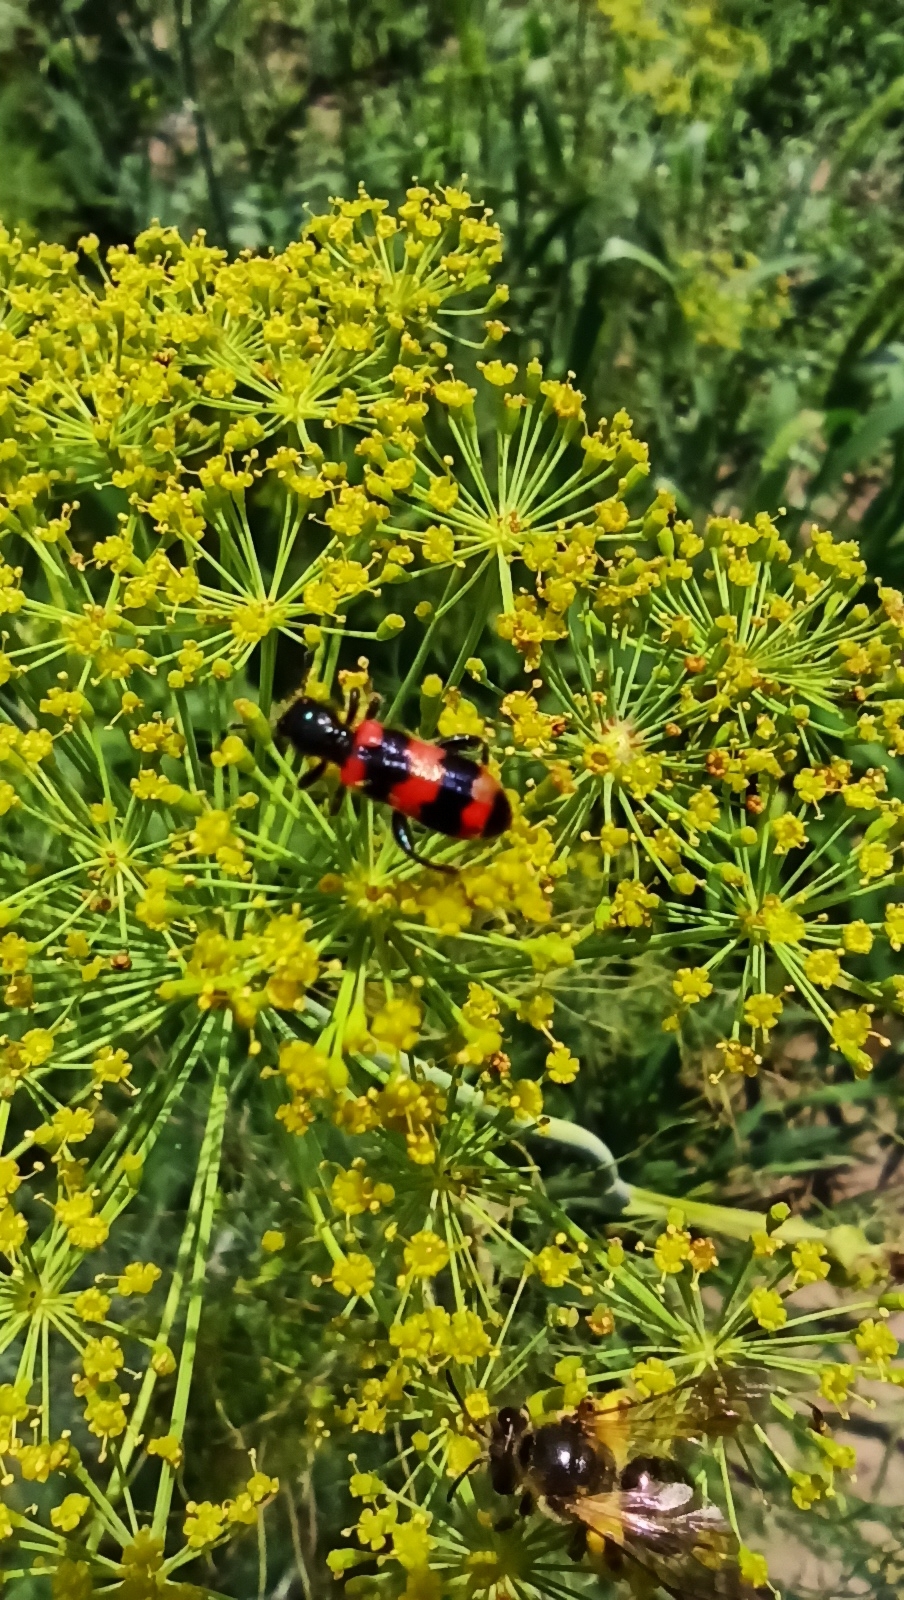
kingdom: Animalia
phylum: Arthropoda
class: Insecta
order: Coleoptera
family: Cleridae
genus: Trichodes
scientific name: Trichodes apiarius
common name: Bee-eating beetle
